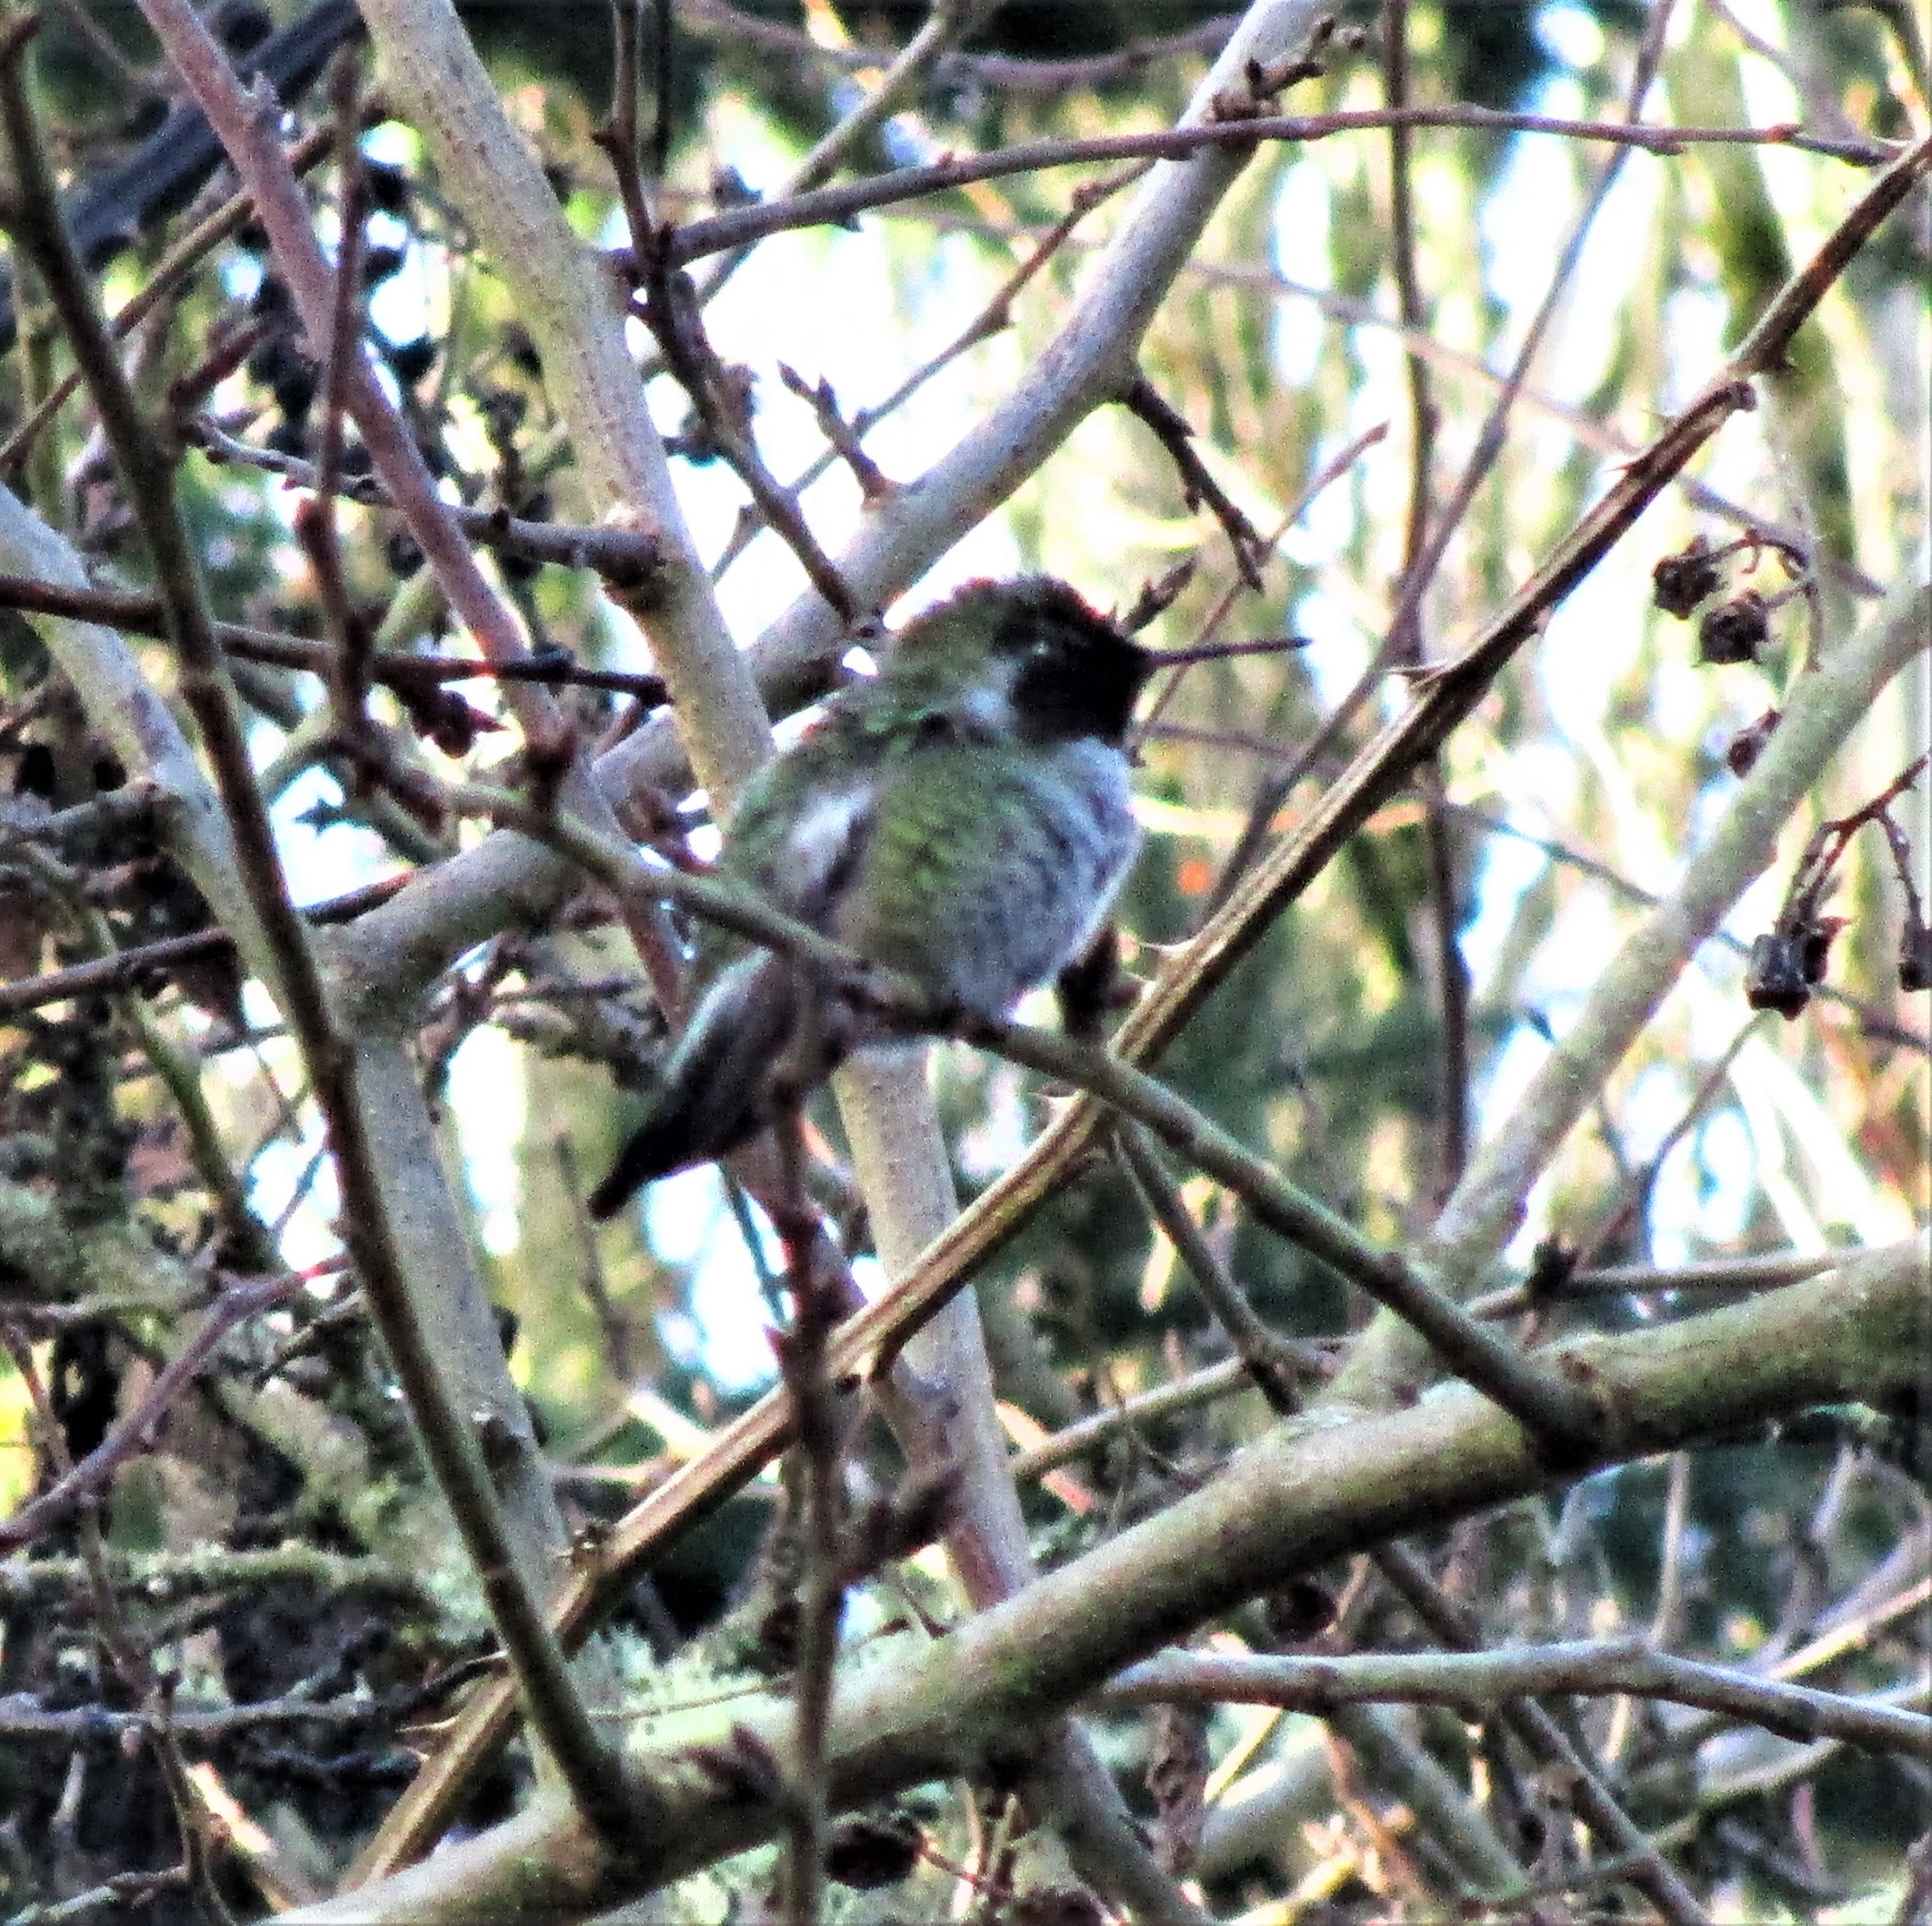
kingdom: Animalia
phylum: Chordata
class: Aves
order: Apodiformes
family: Trochilidae
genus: Calypte
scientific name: Calypte anna
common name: Anna's hummingbird
